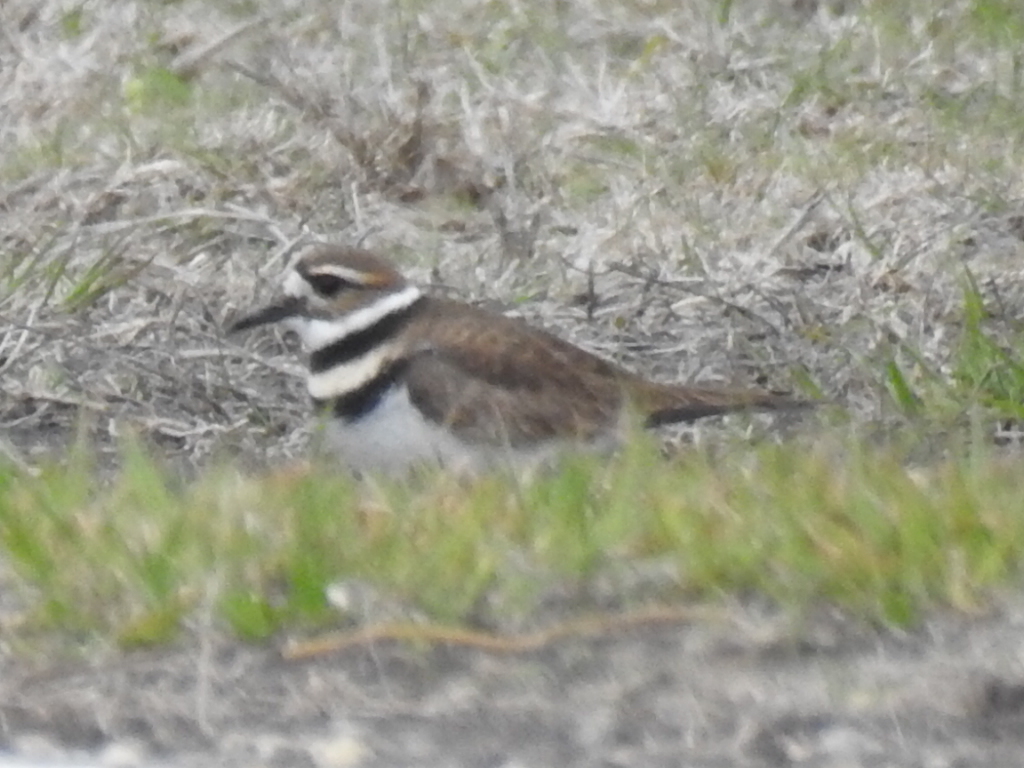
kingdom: Animalia
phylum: Chordata
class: Aves
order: Charadriiformes
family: Charadriidae
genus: Charadrius
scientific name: Charadrius vociferus
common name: Killdeer
